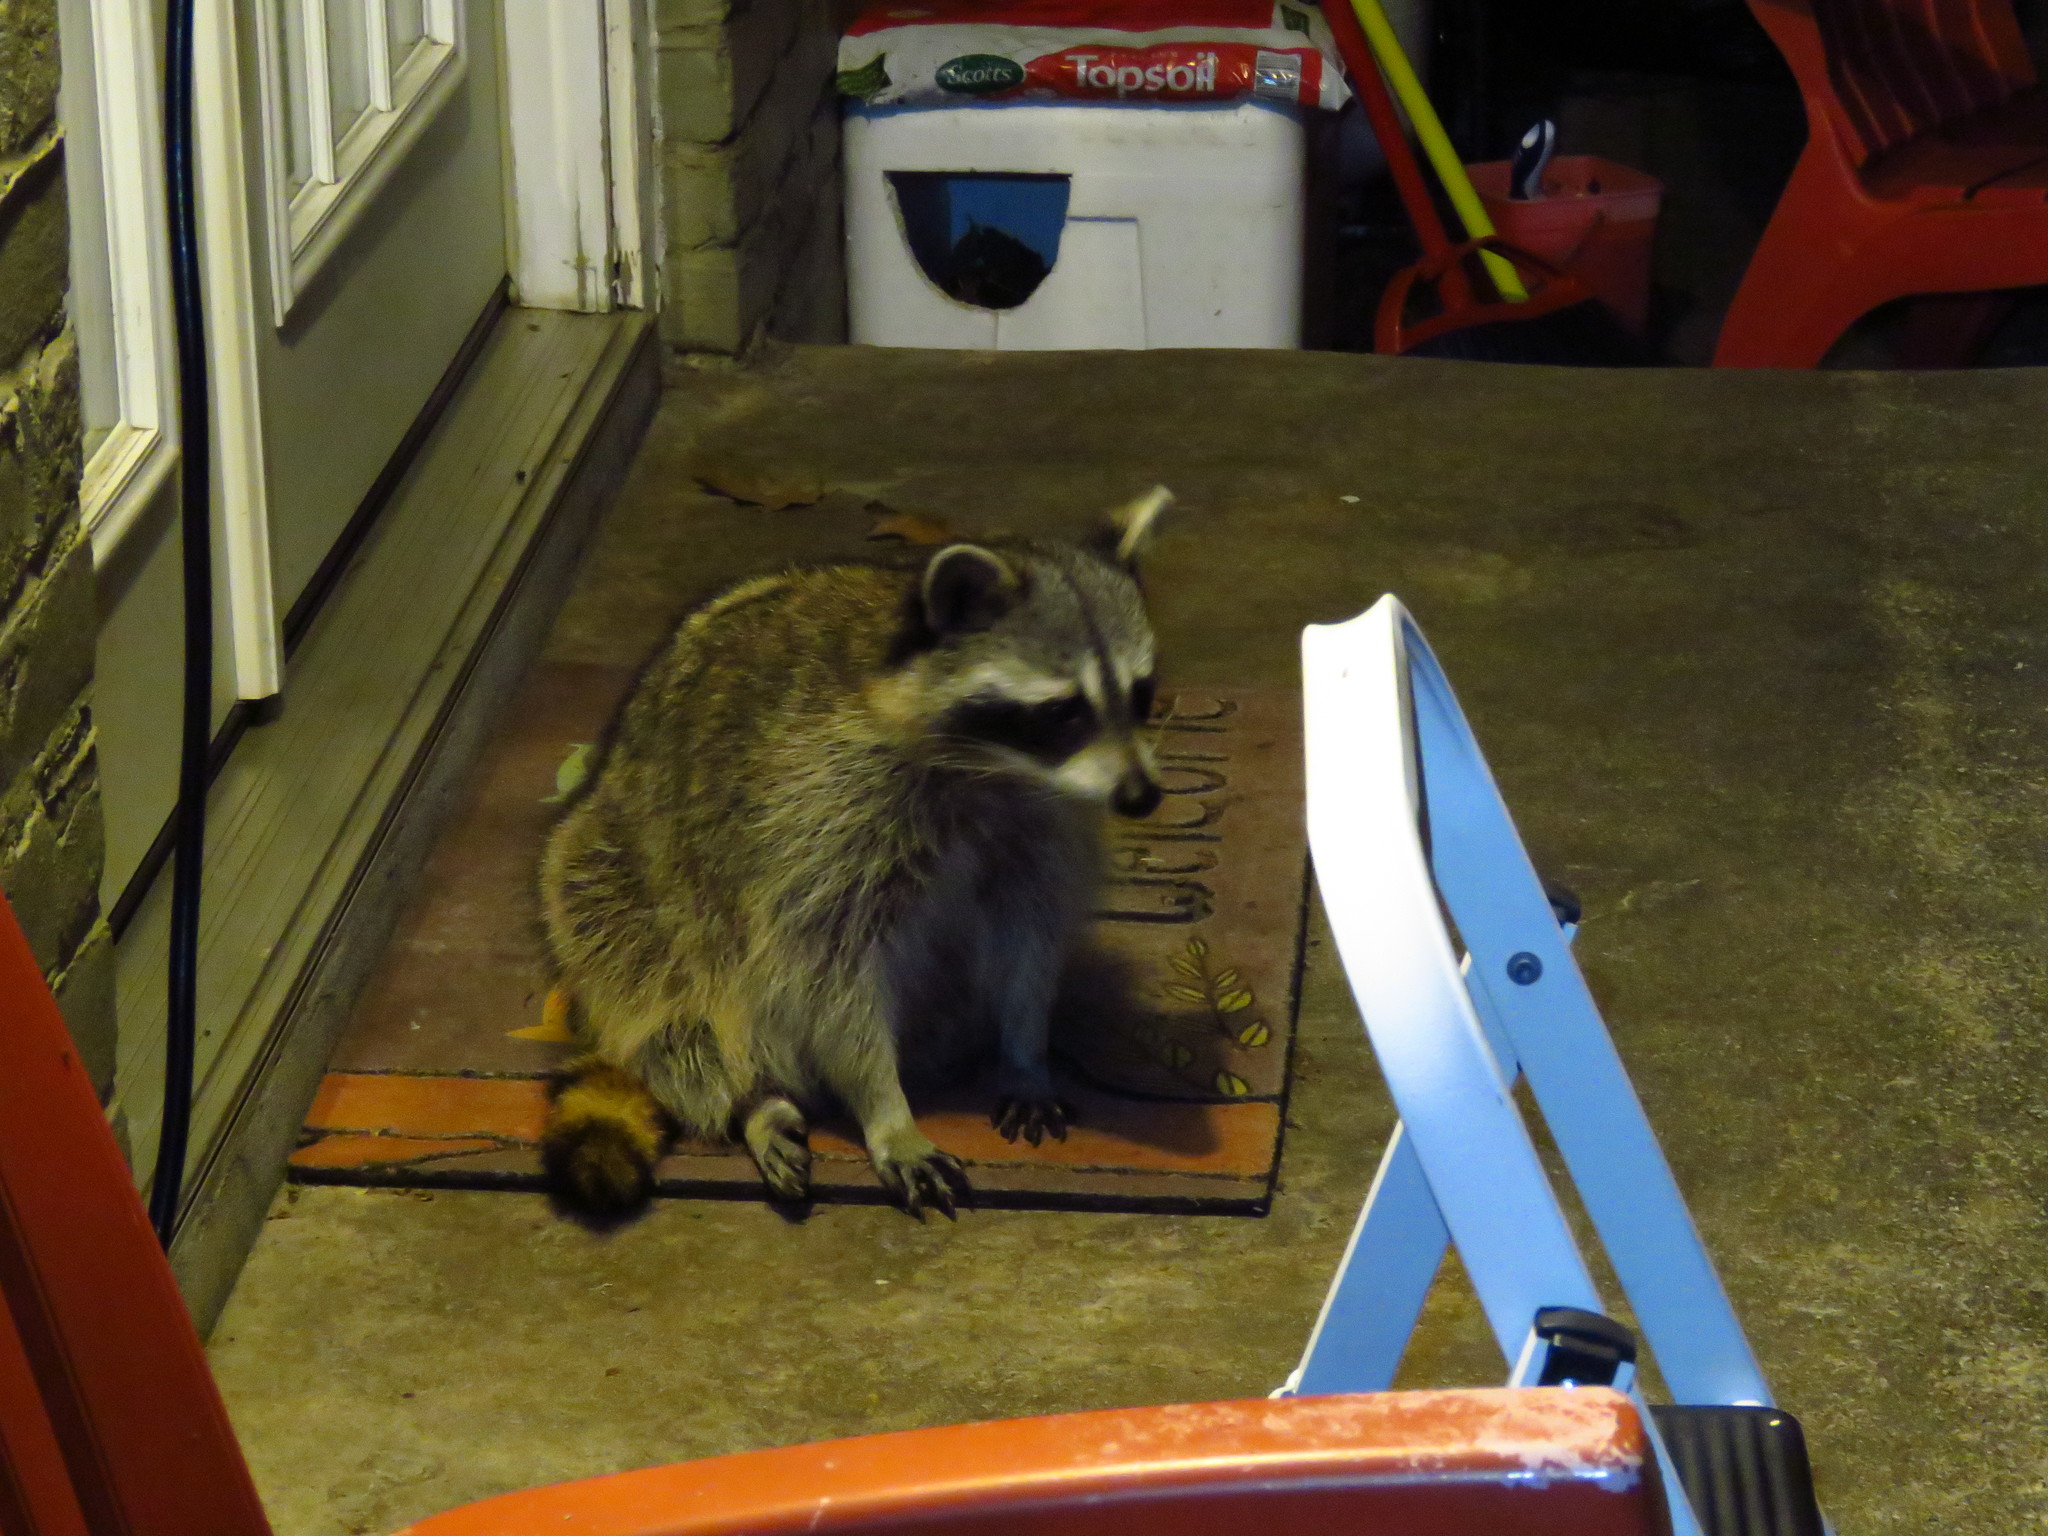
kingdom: Animalia
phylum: Chordata
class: Mammalia
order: Carnivora
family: Procyonidae
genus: Procyon
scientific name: Procyon lotor
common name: Raccoon
